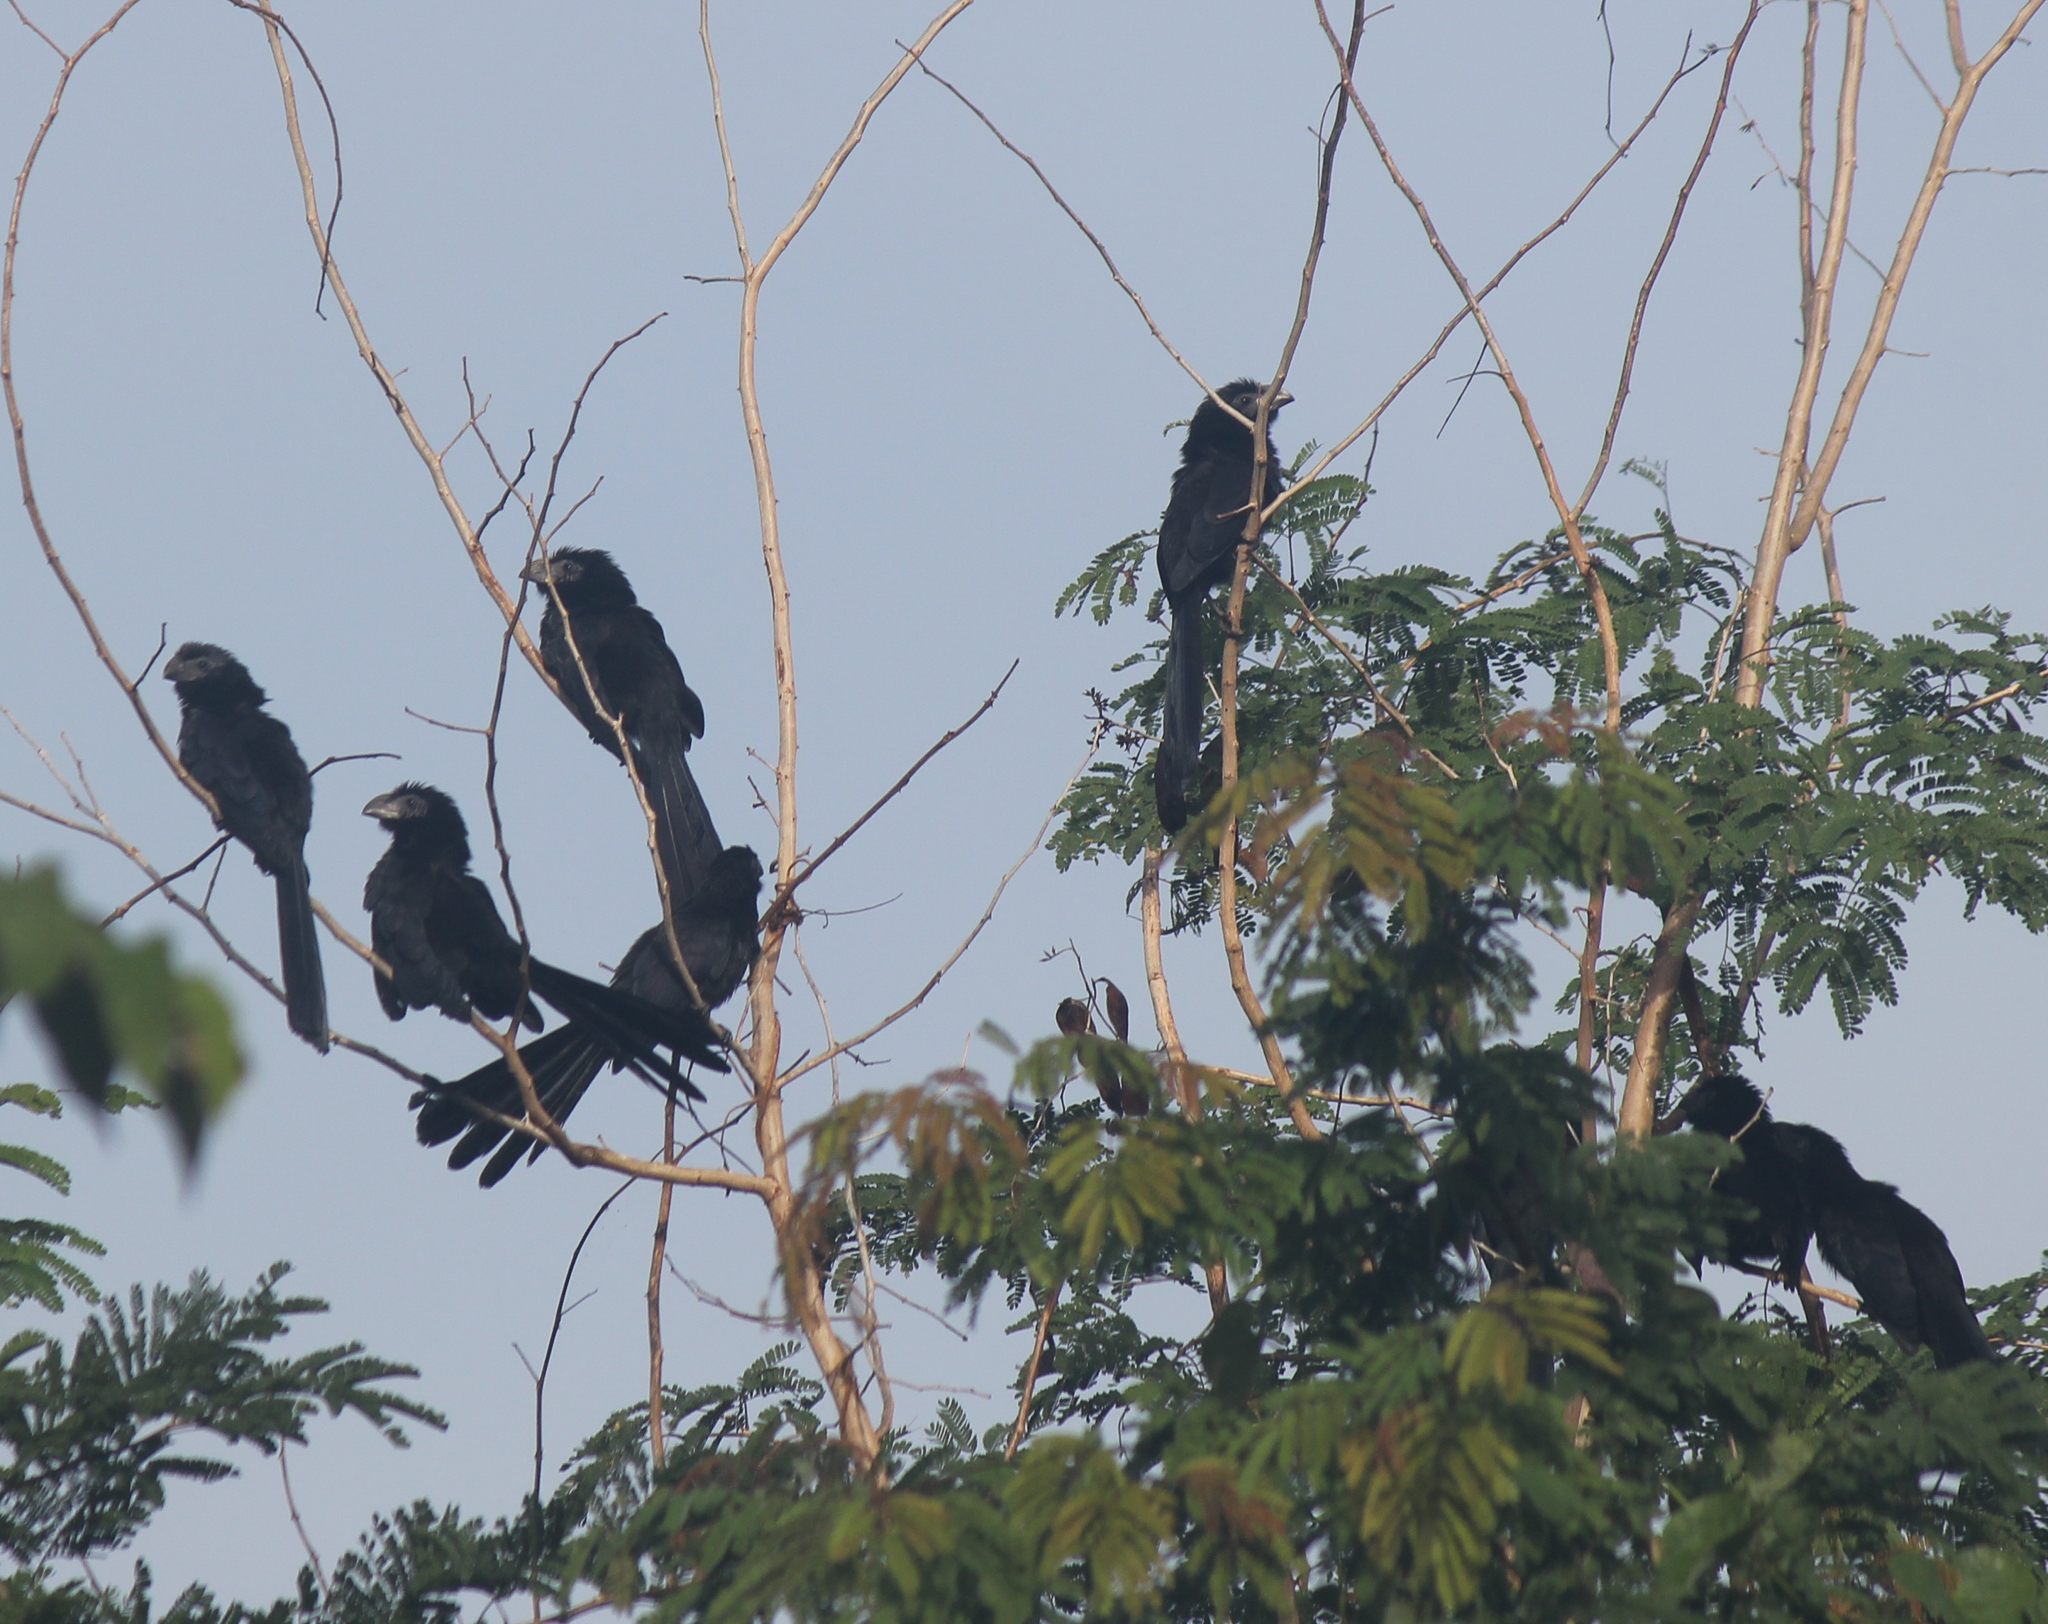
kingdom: Animalia
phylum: Chordata
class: Aves
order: Cuculiformes
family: Cuculidae
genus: Crotophaga
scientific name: Crotophaga sulcirostris
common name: Groove-billed ani
